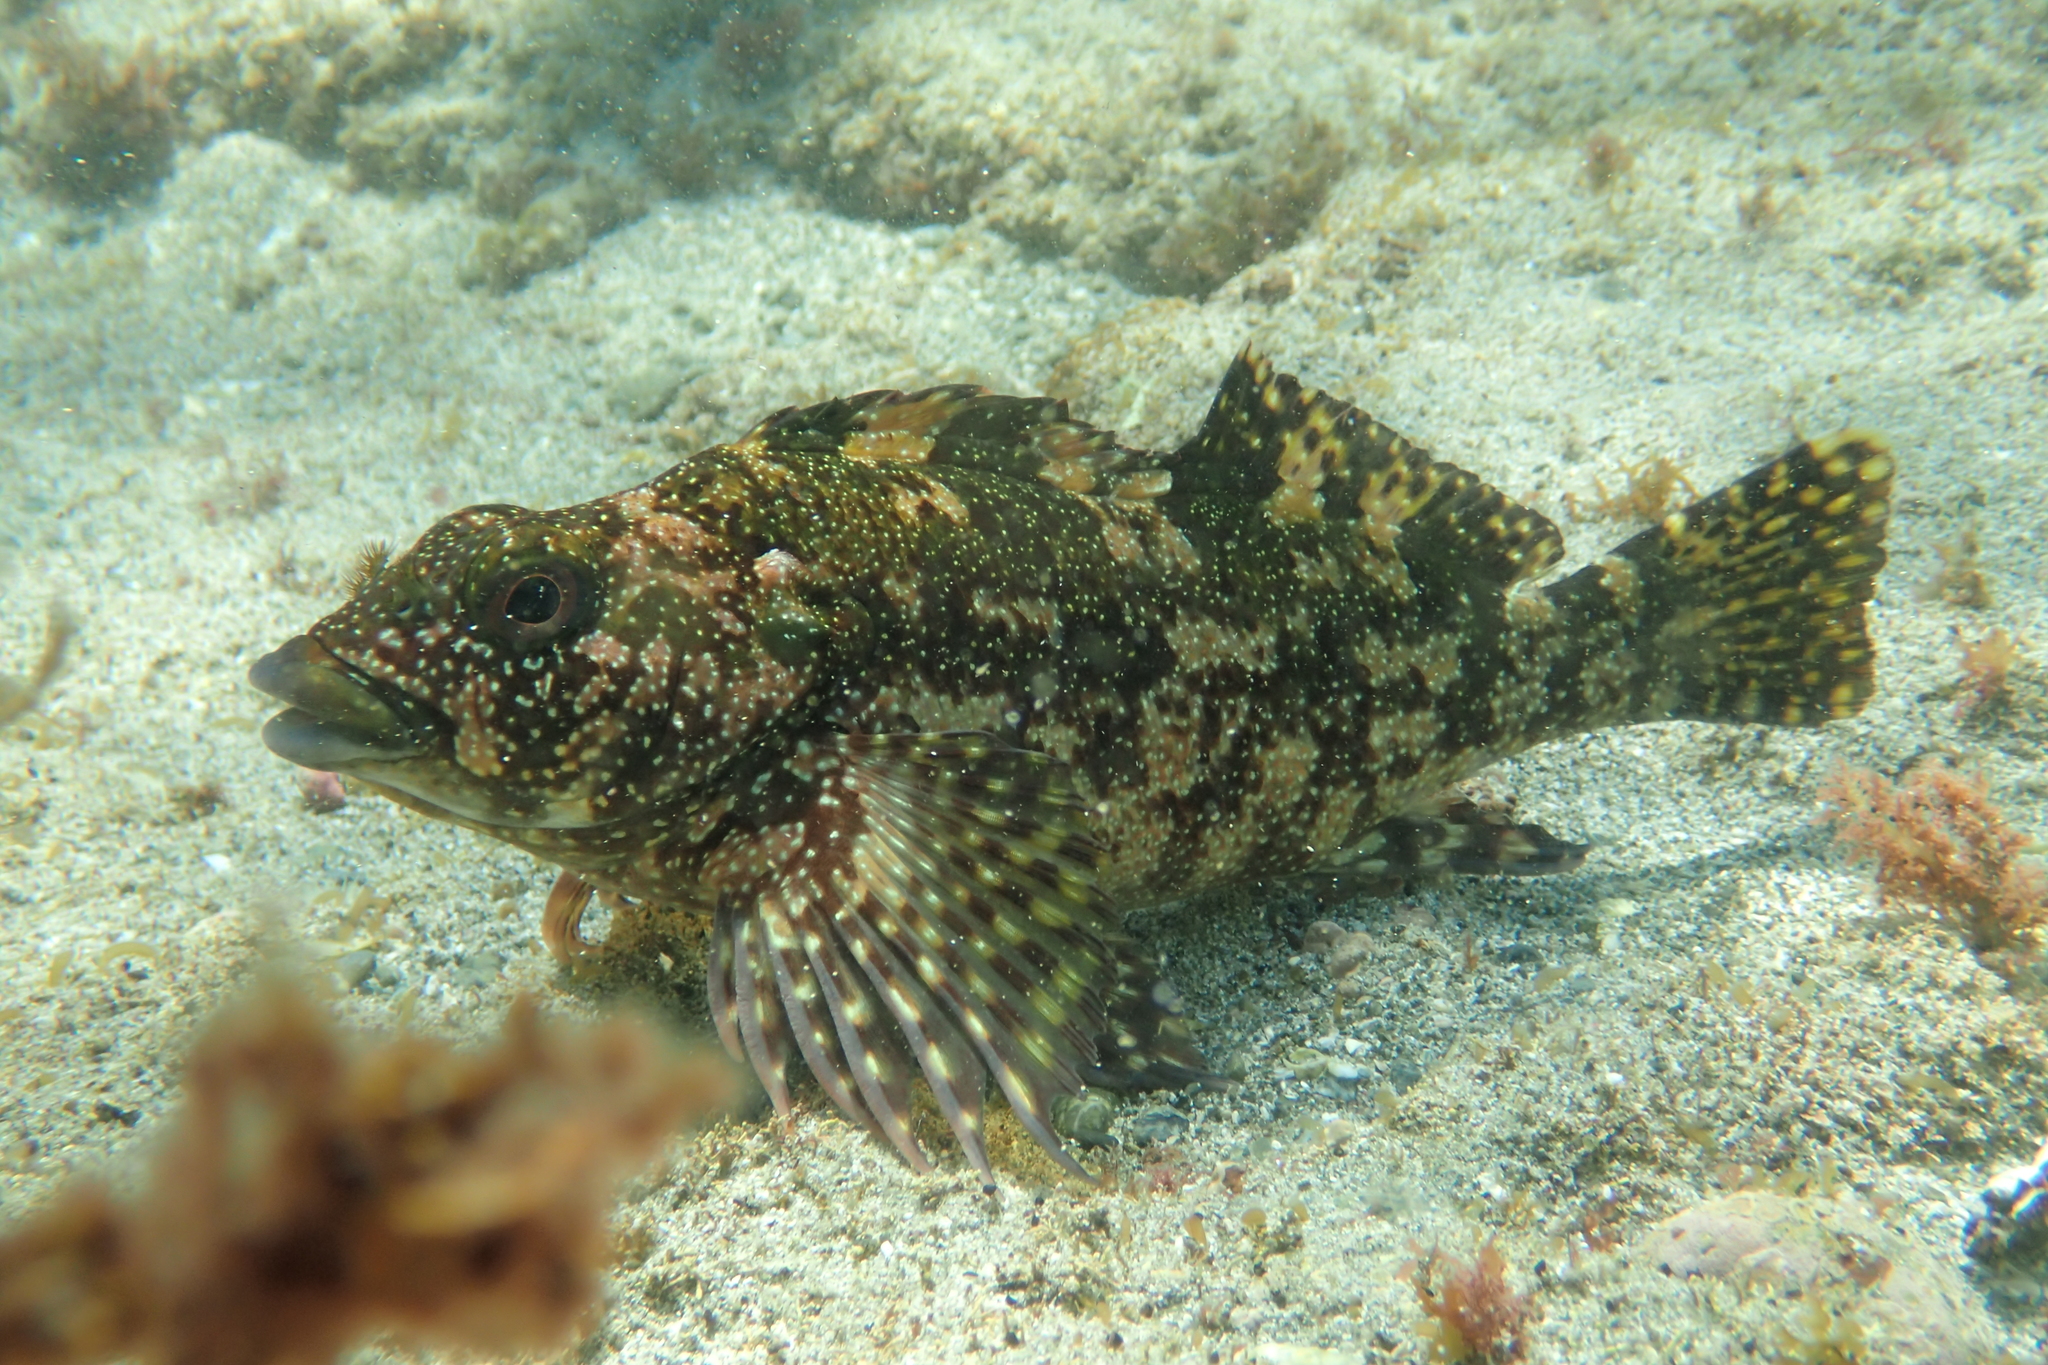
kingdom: Animalia
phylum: Chordata
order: Perciformes
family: Chironemidae
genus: Chironemus
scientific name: Chironemus marmoratus
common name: Kelpfish
